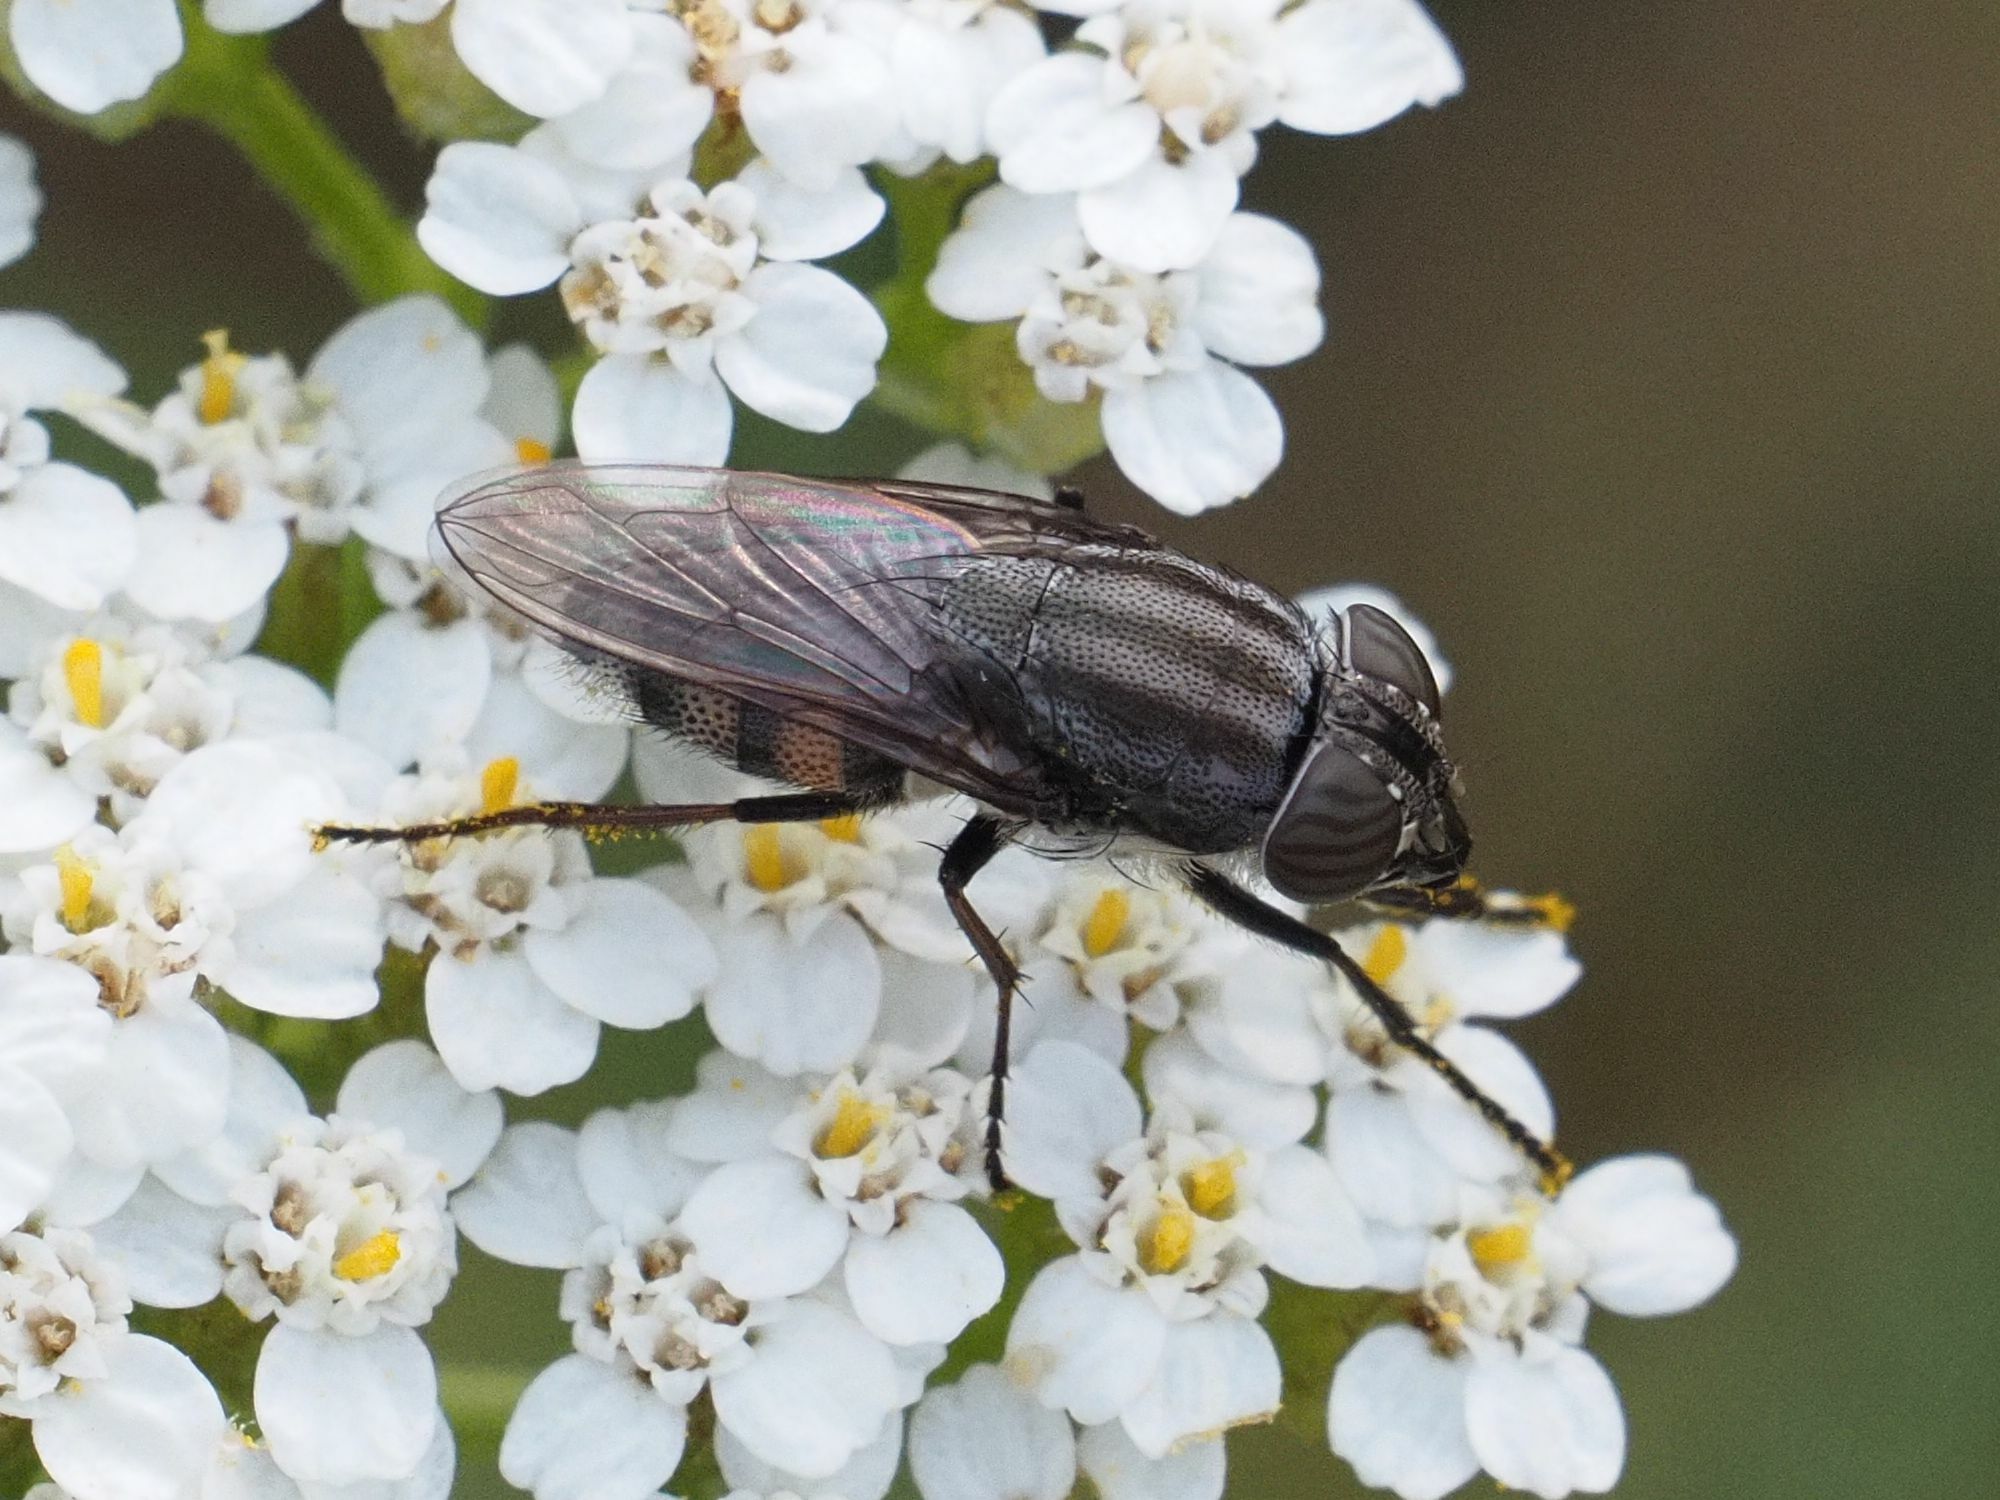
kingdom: Animalia
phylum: Arthropoda
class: Insecta
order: Diptera
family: Calliphoridae
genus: Stomorhina
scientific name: Stomorhina lunata
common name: Locust blowfly
